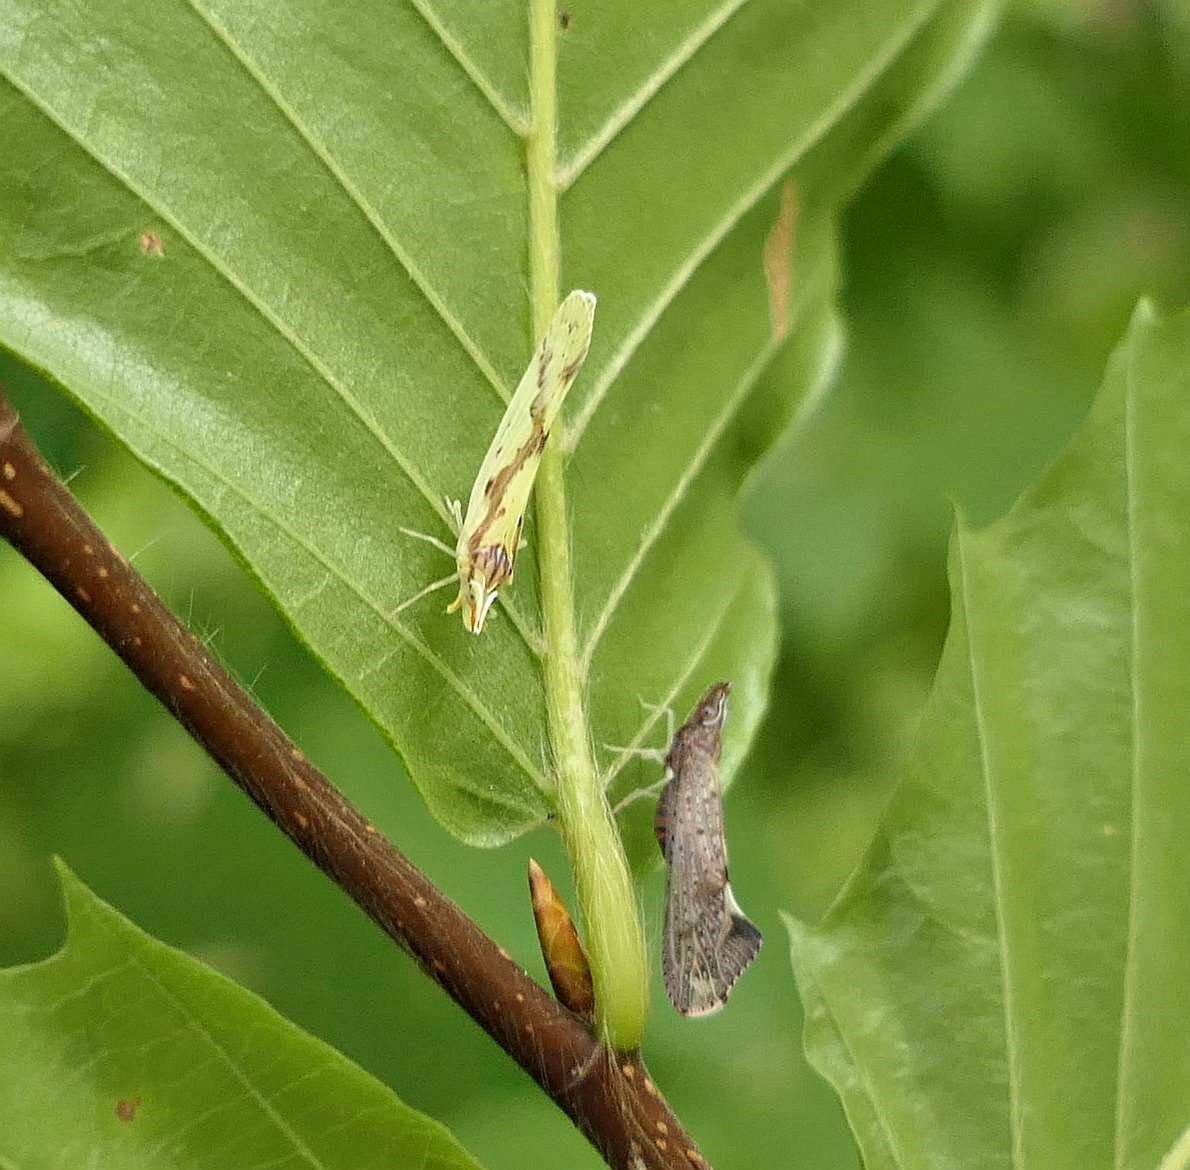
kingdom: Animalia
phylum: Arthropoda
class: Insecta
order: Hemiptera
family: Derbidae
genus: Otiocerus
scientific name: Otiocerus wolfii
